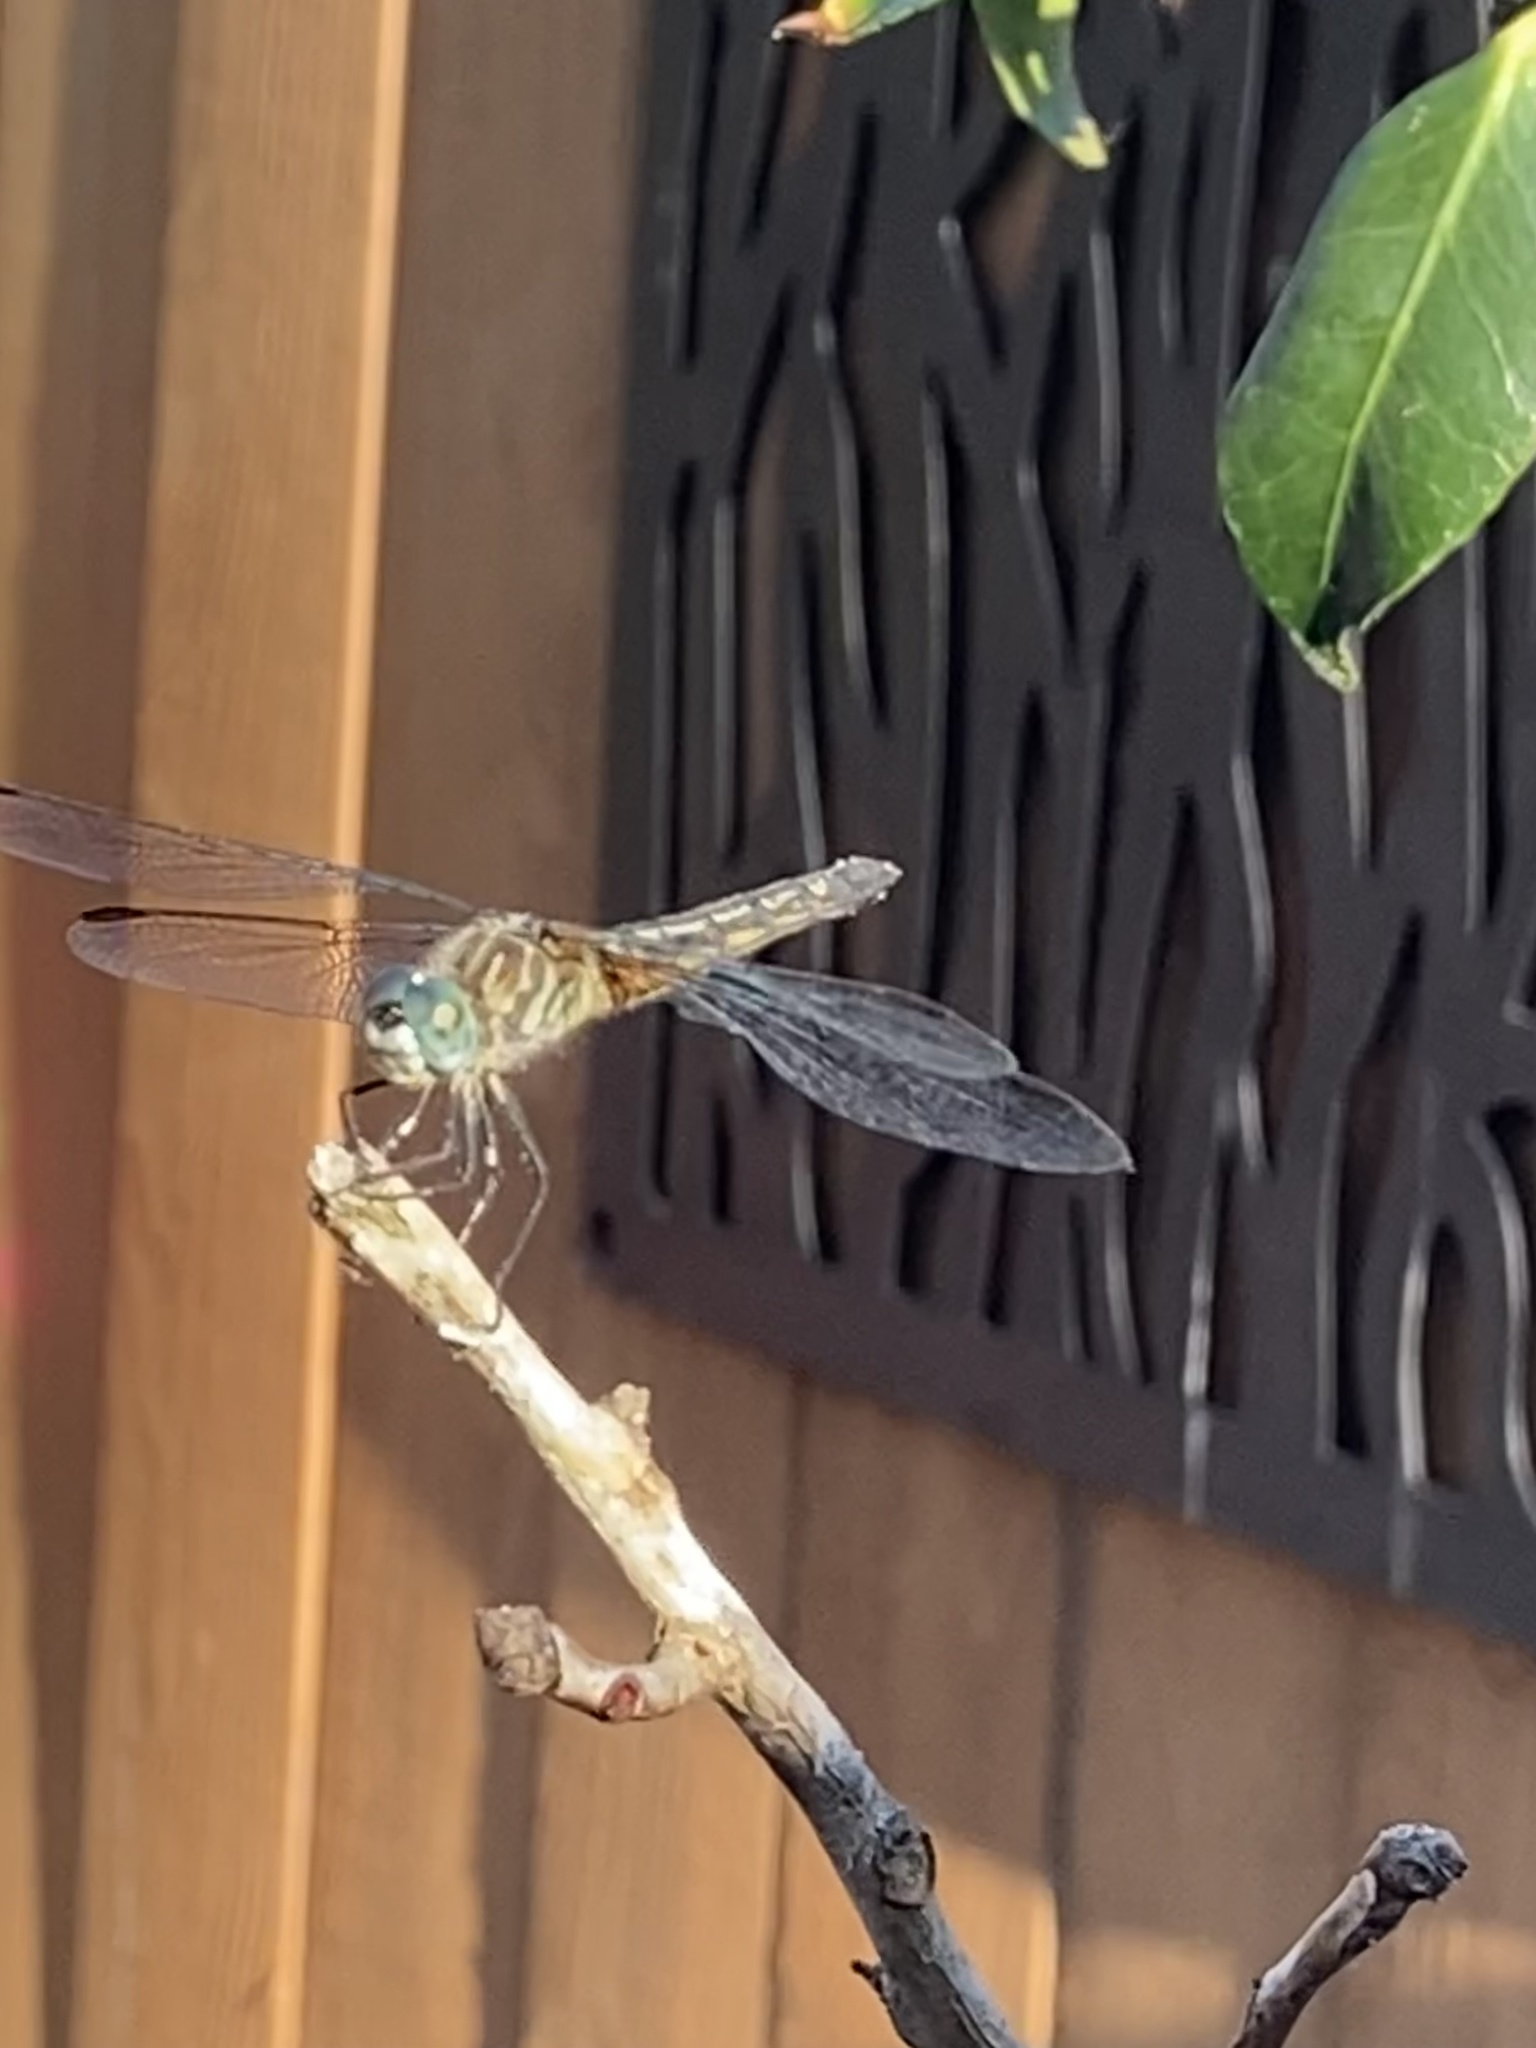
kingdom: Animalia
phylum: Arthropoda
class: Insecta
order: Odonata
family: Libellulidae
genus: Pachydiplax
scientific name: Pachydiplax longipennis
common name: Blue dasher
